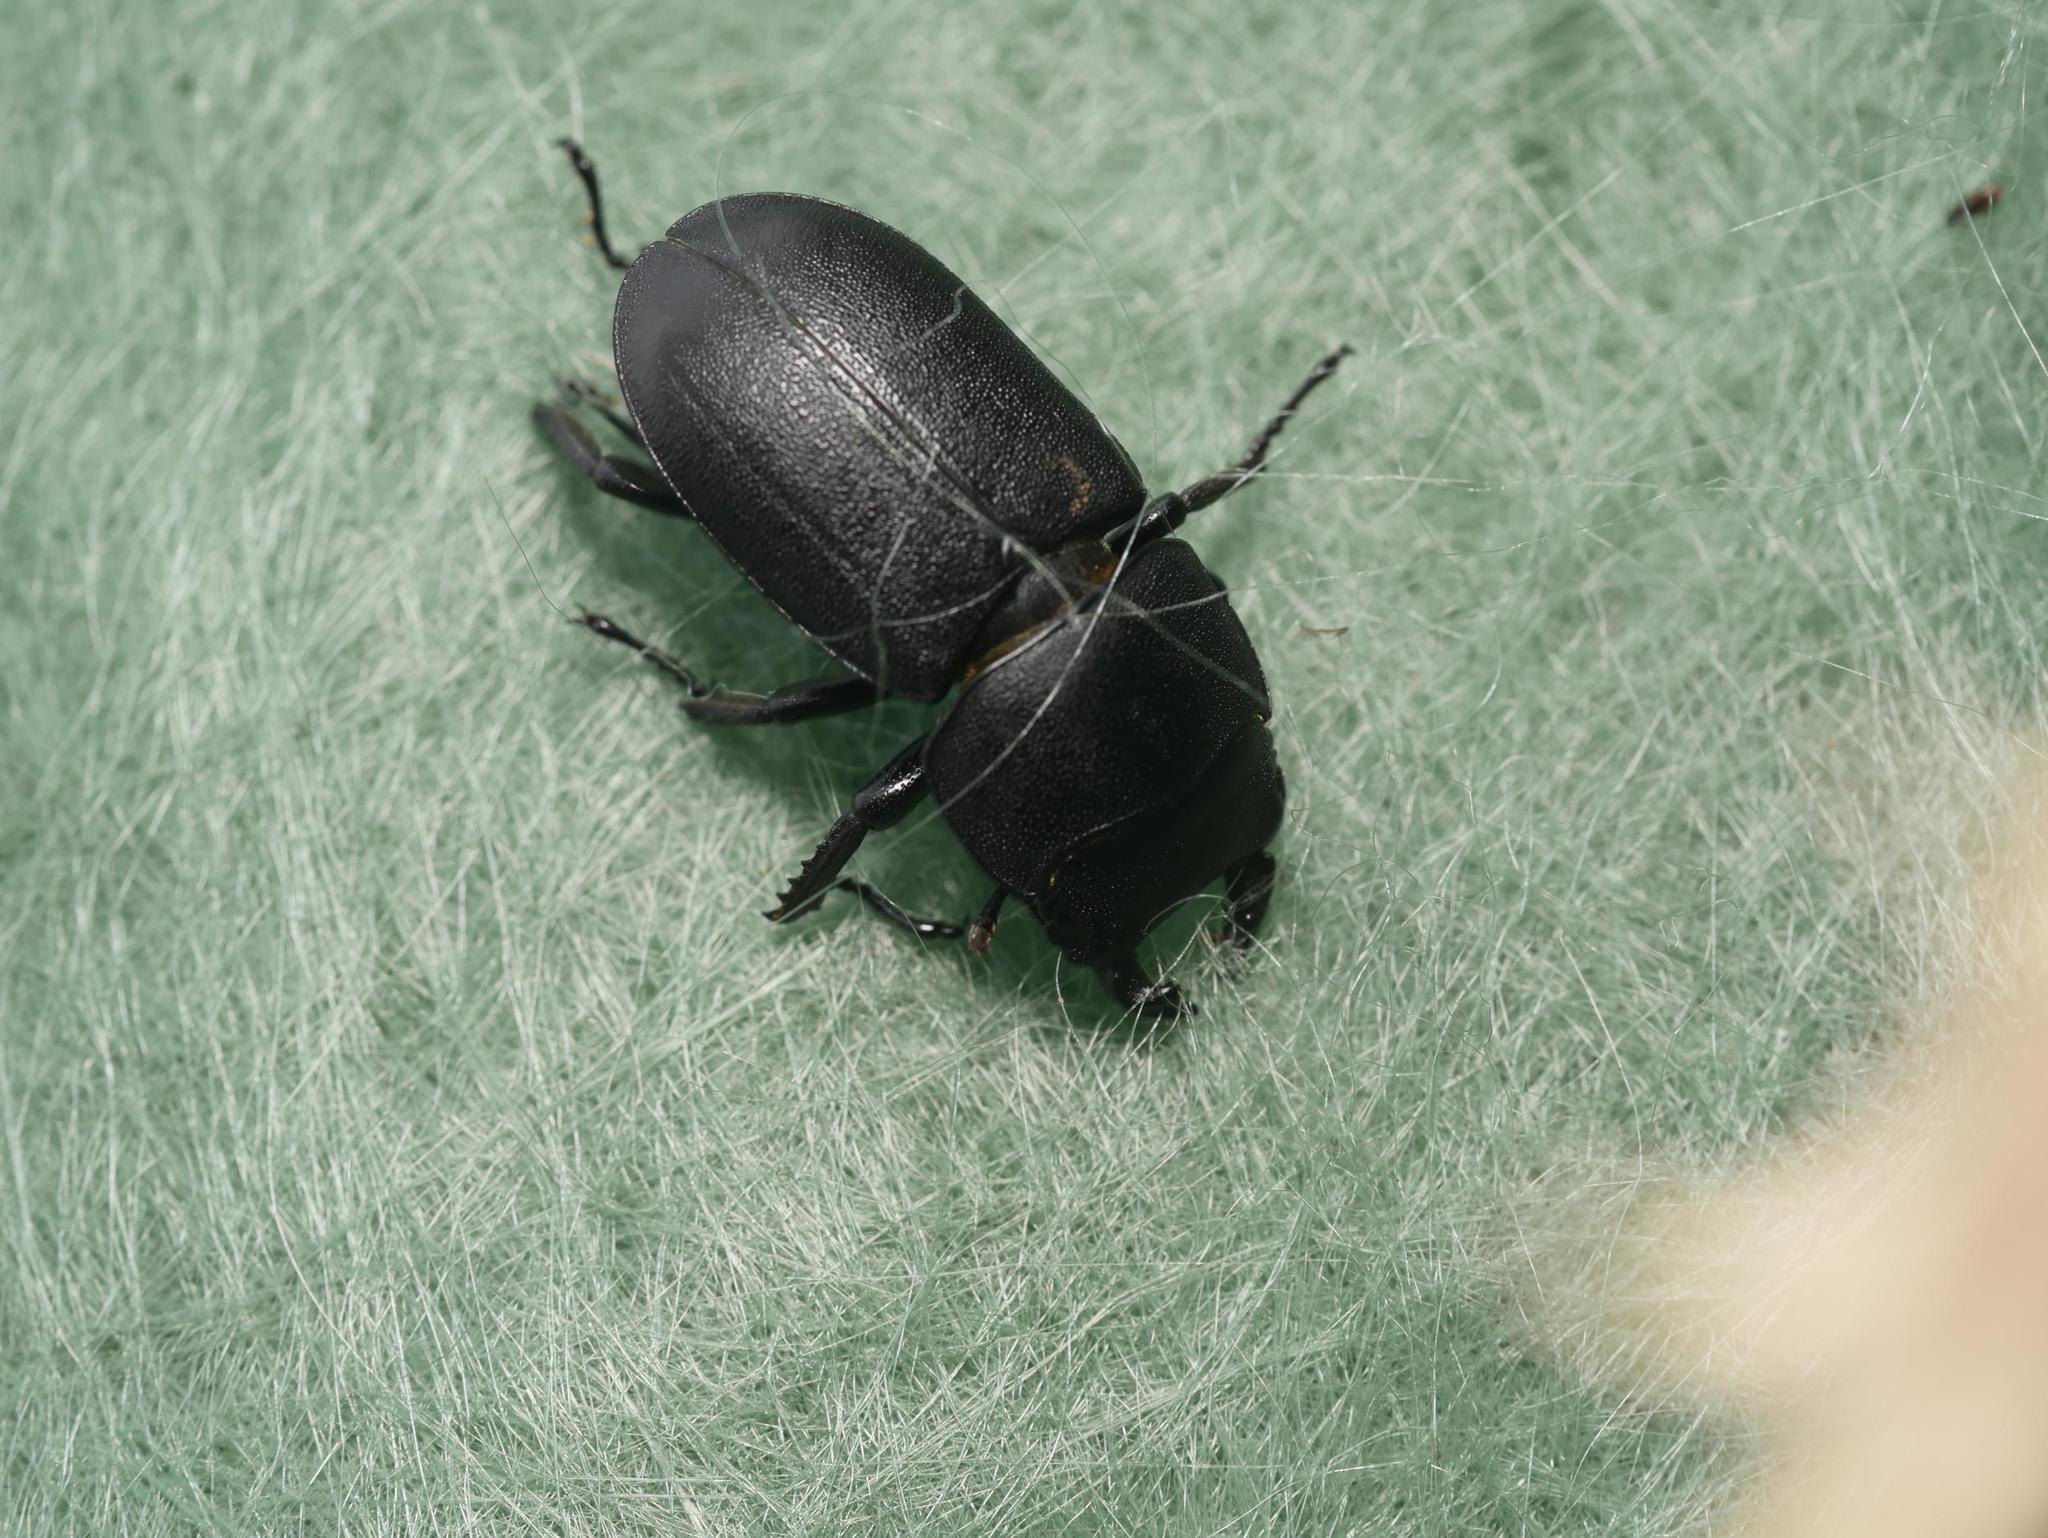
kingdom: Animalia
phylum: Arthropoda
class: Insecta
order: Coleoptera
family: Lucanidae
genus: Dorcus
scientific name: Dorcus parallelipipedus
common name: Lesser stag beetle
